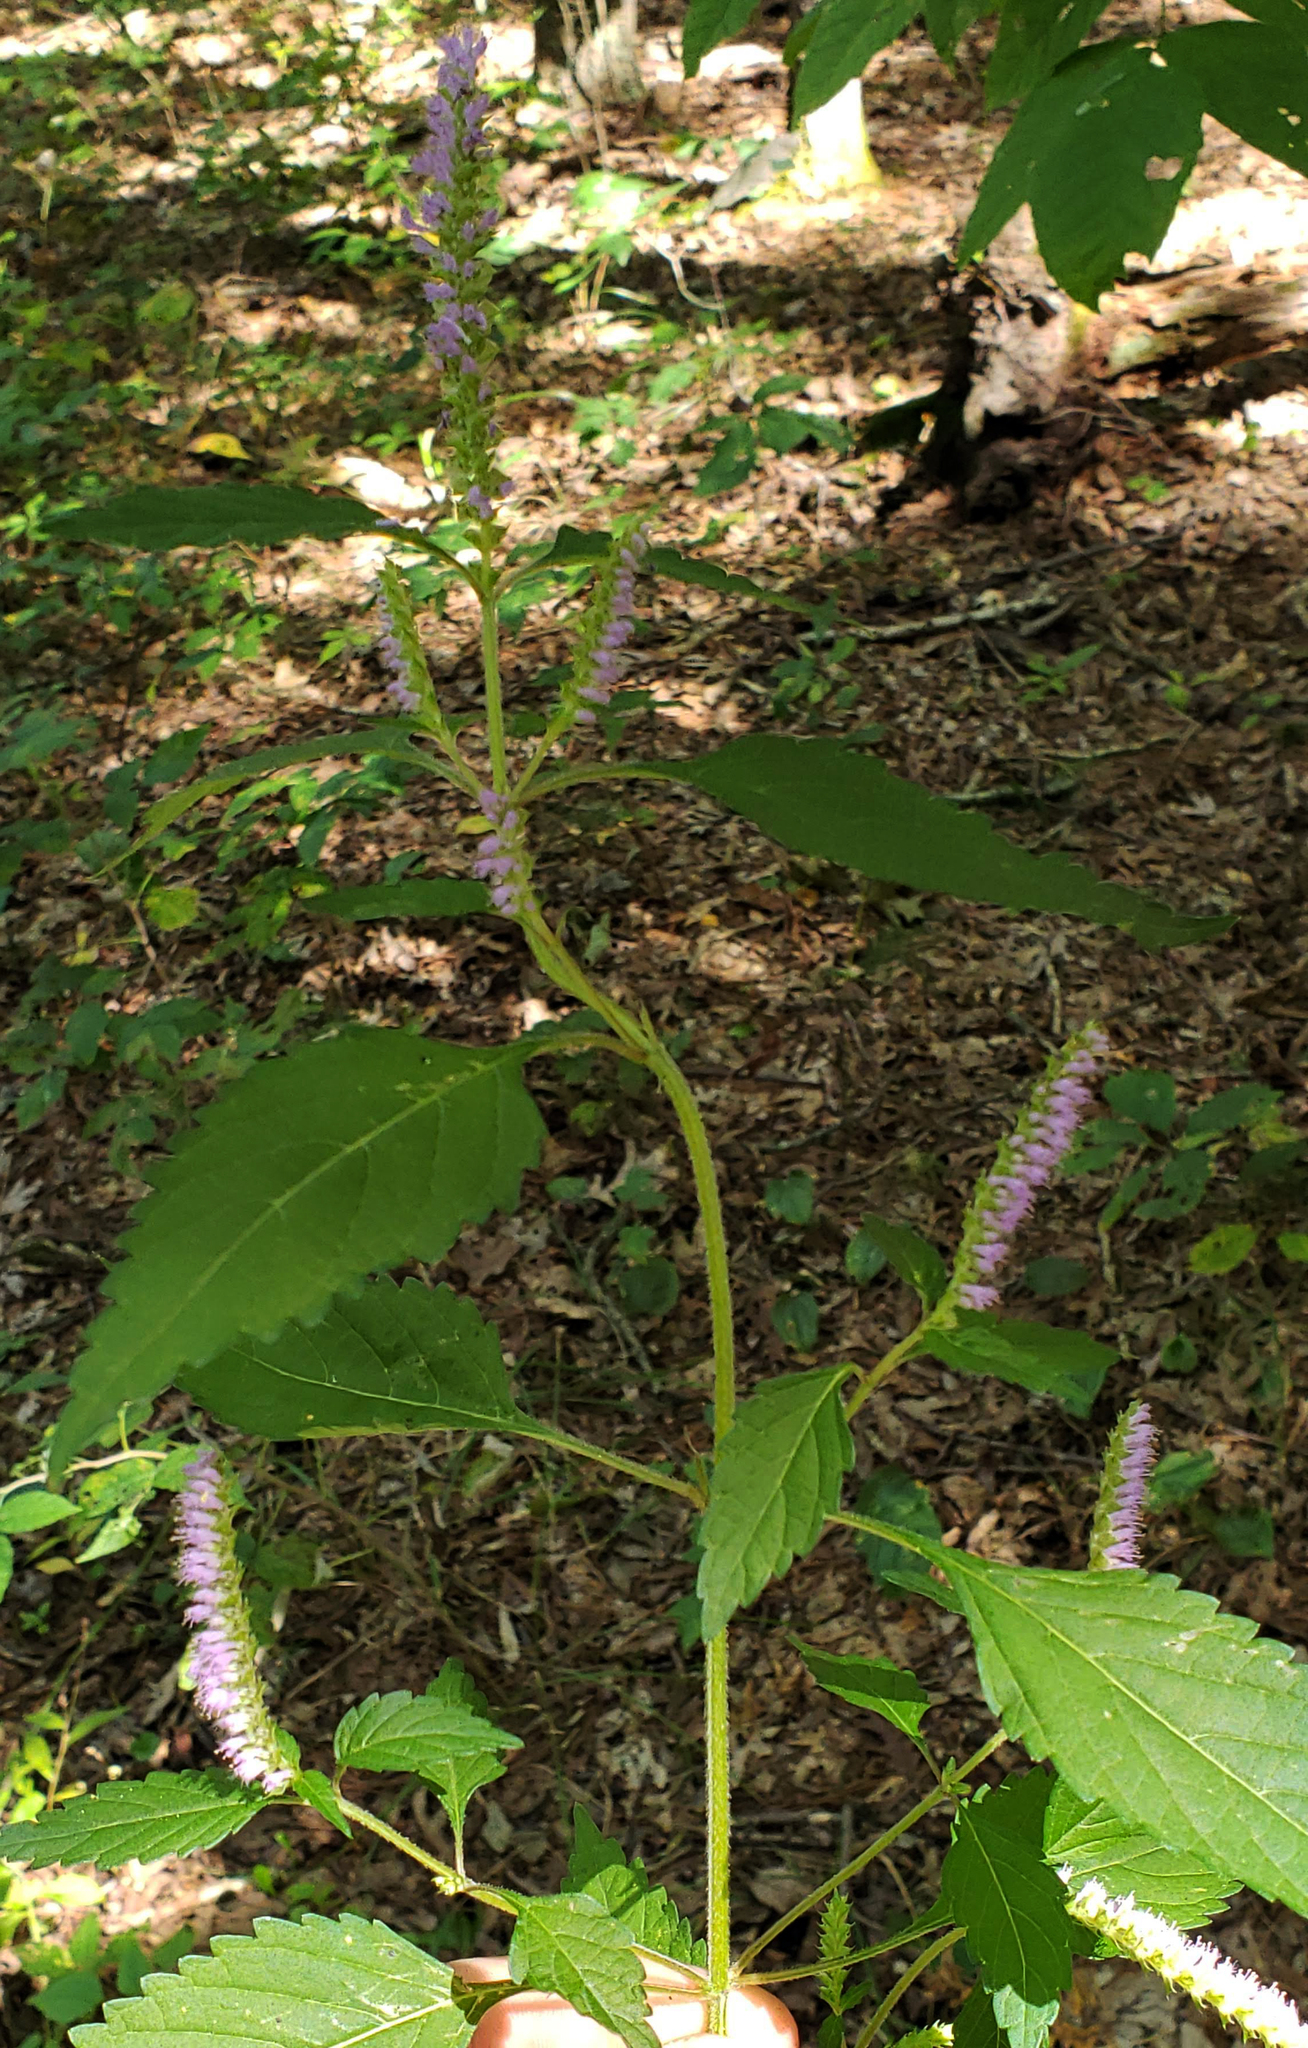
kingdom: Plantae
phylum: Tracheophyta
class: Magnoliopsida
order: Lamiales
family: Lamiaceae
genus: Elsholtzia
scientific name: Elsholtzia ciliata
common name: Ciliate elsholtzia
